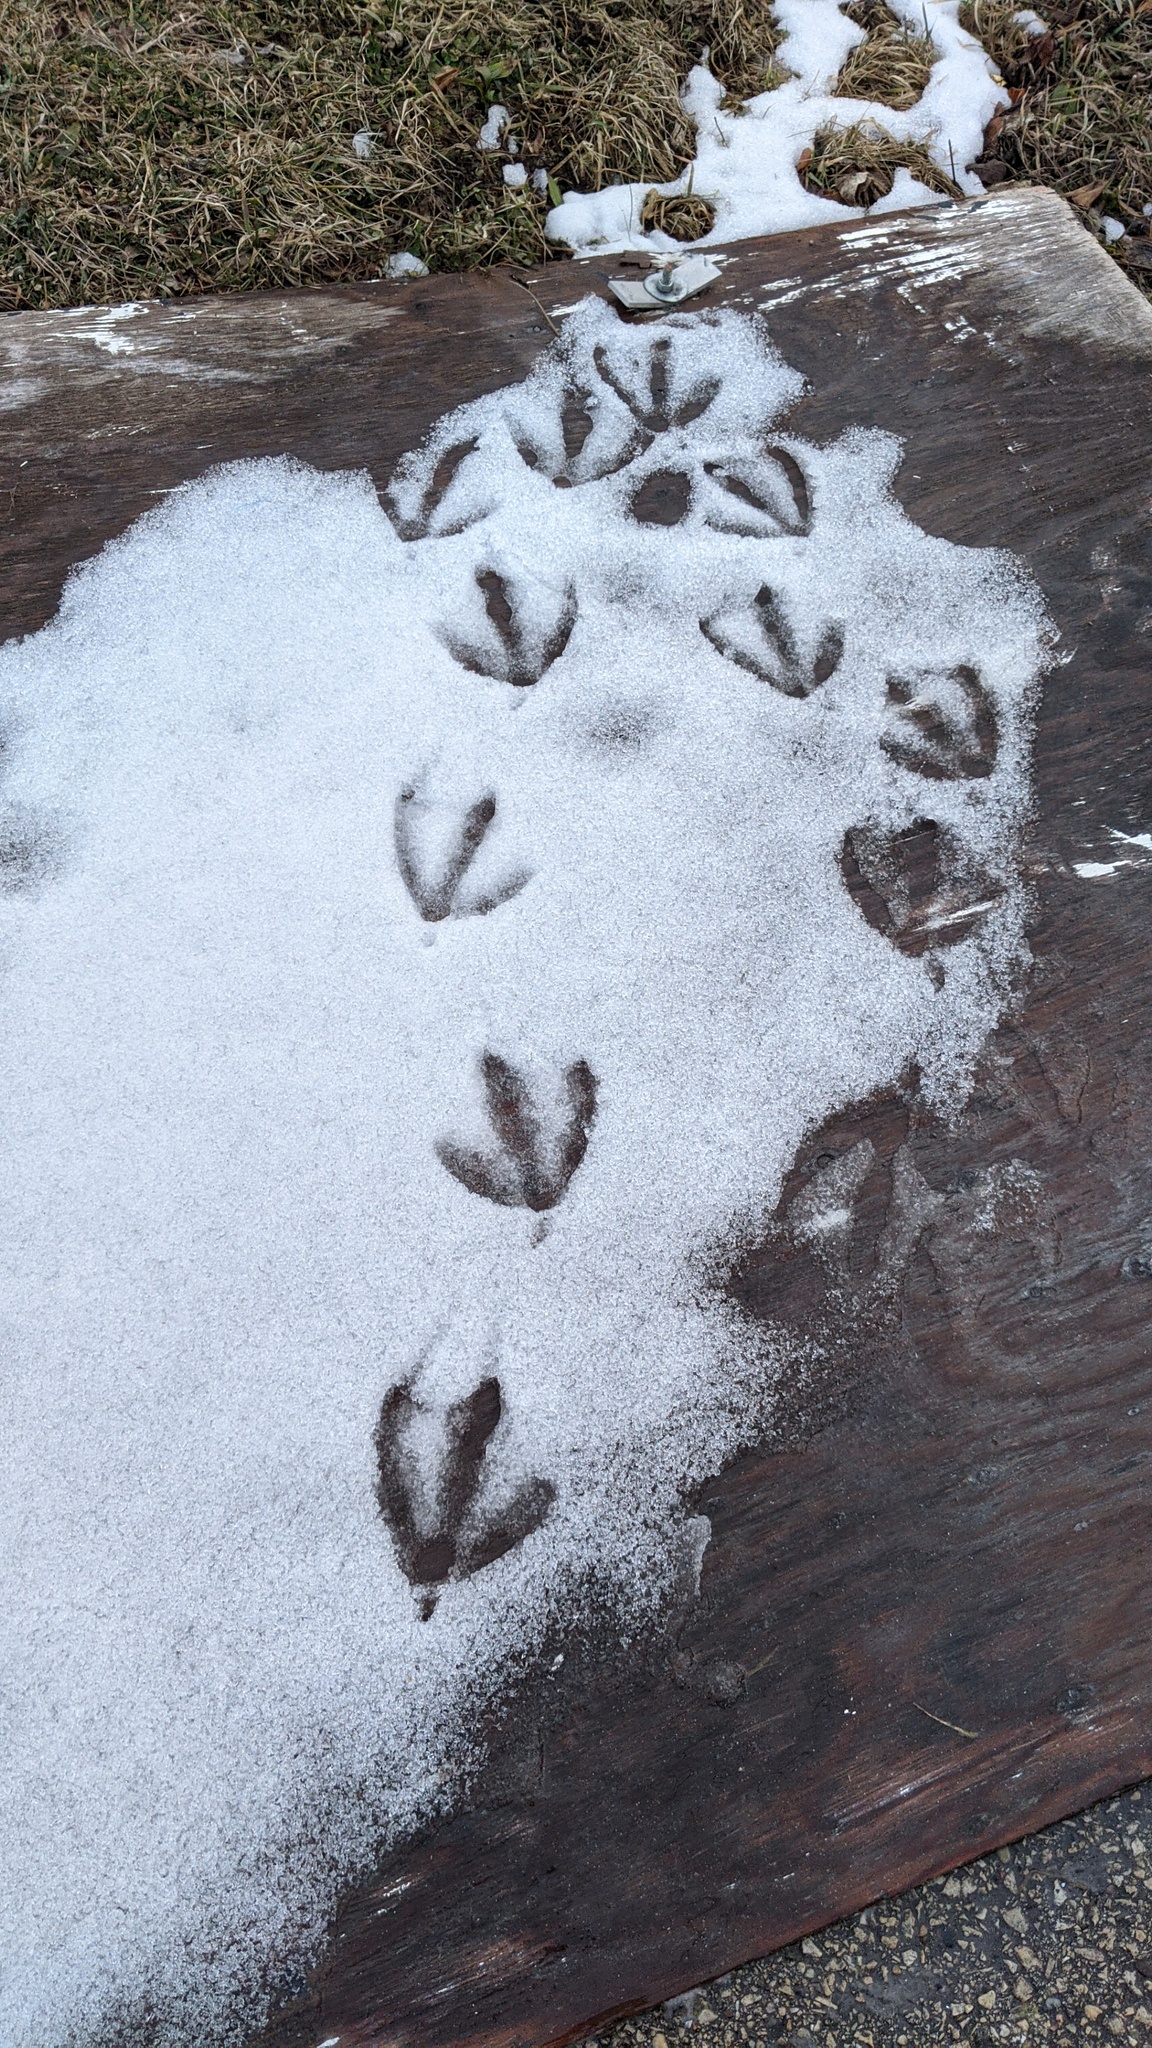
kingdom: Animalia
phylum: Chordata
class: Aves
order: Anseriformes
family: Anatidae
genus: Branta
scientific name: Branta canadensis
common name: Canada goose
